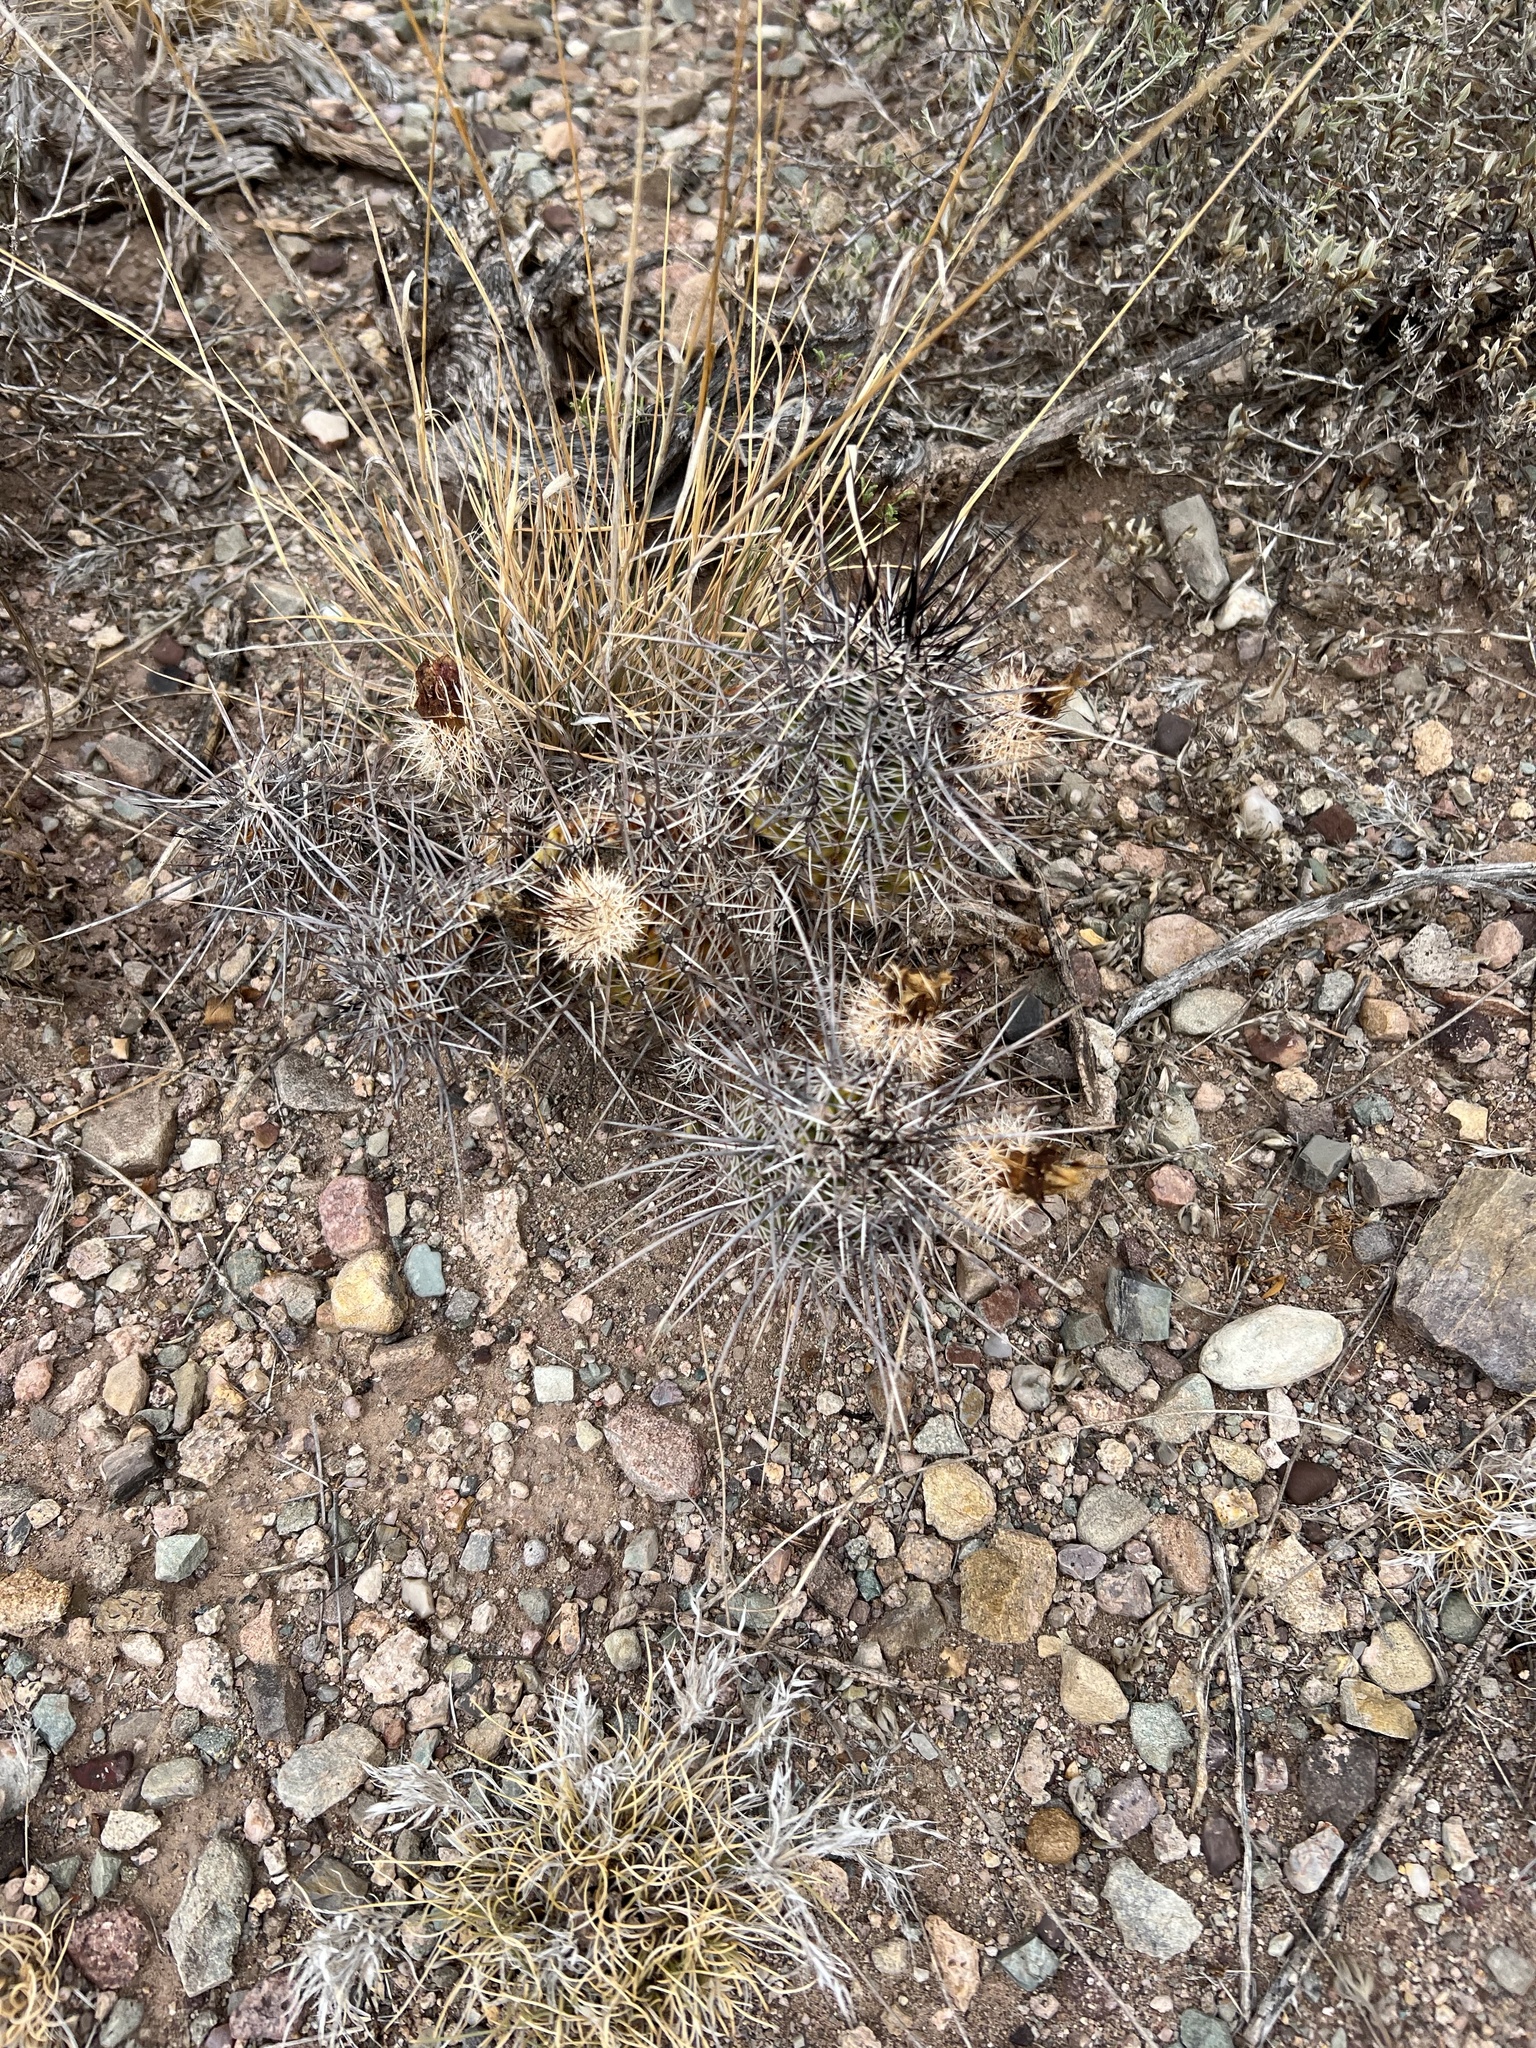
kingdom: Plantae
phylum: Tracheophyta
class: Magnoliopsida
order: Caryophyllales
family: Cactaceae
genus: Echinocereus
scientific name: Echinocereus fasciculatus
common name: Bundle hedgehog
